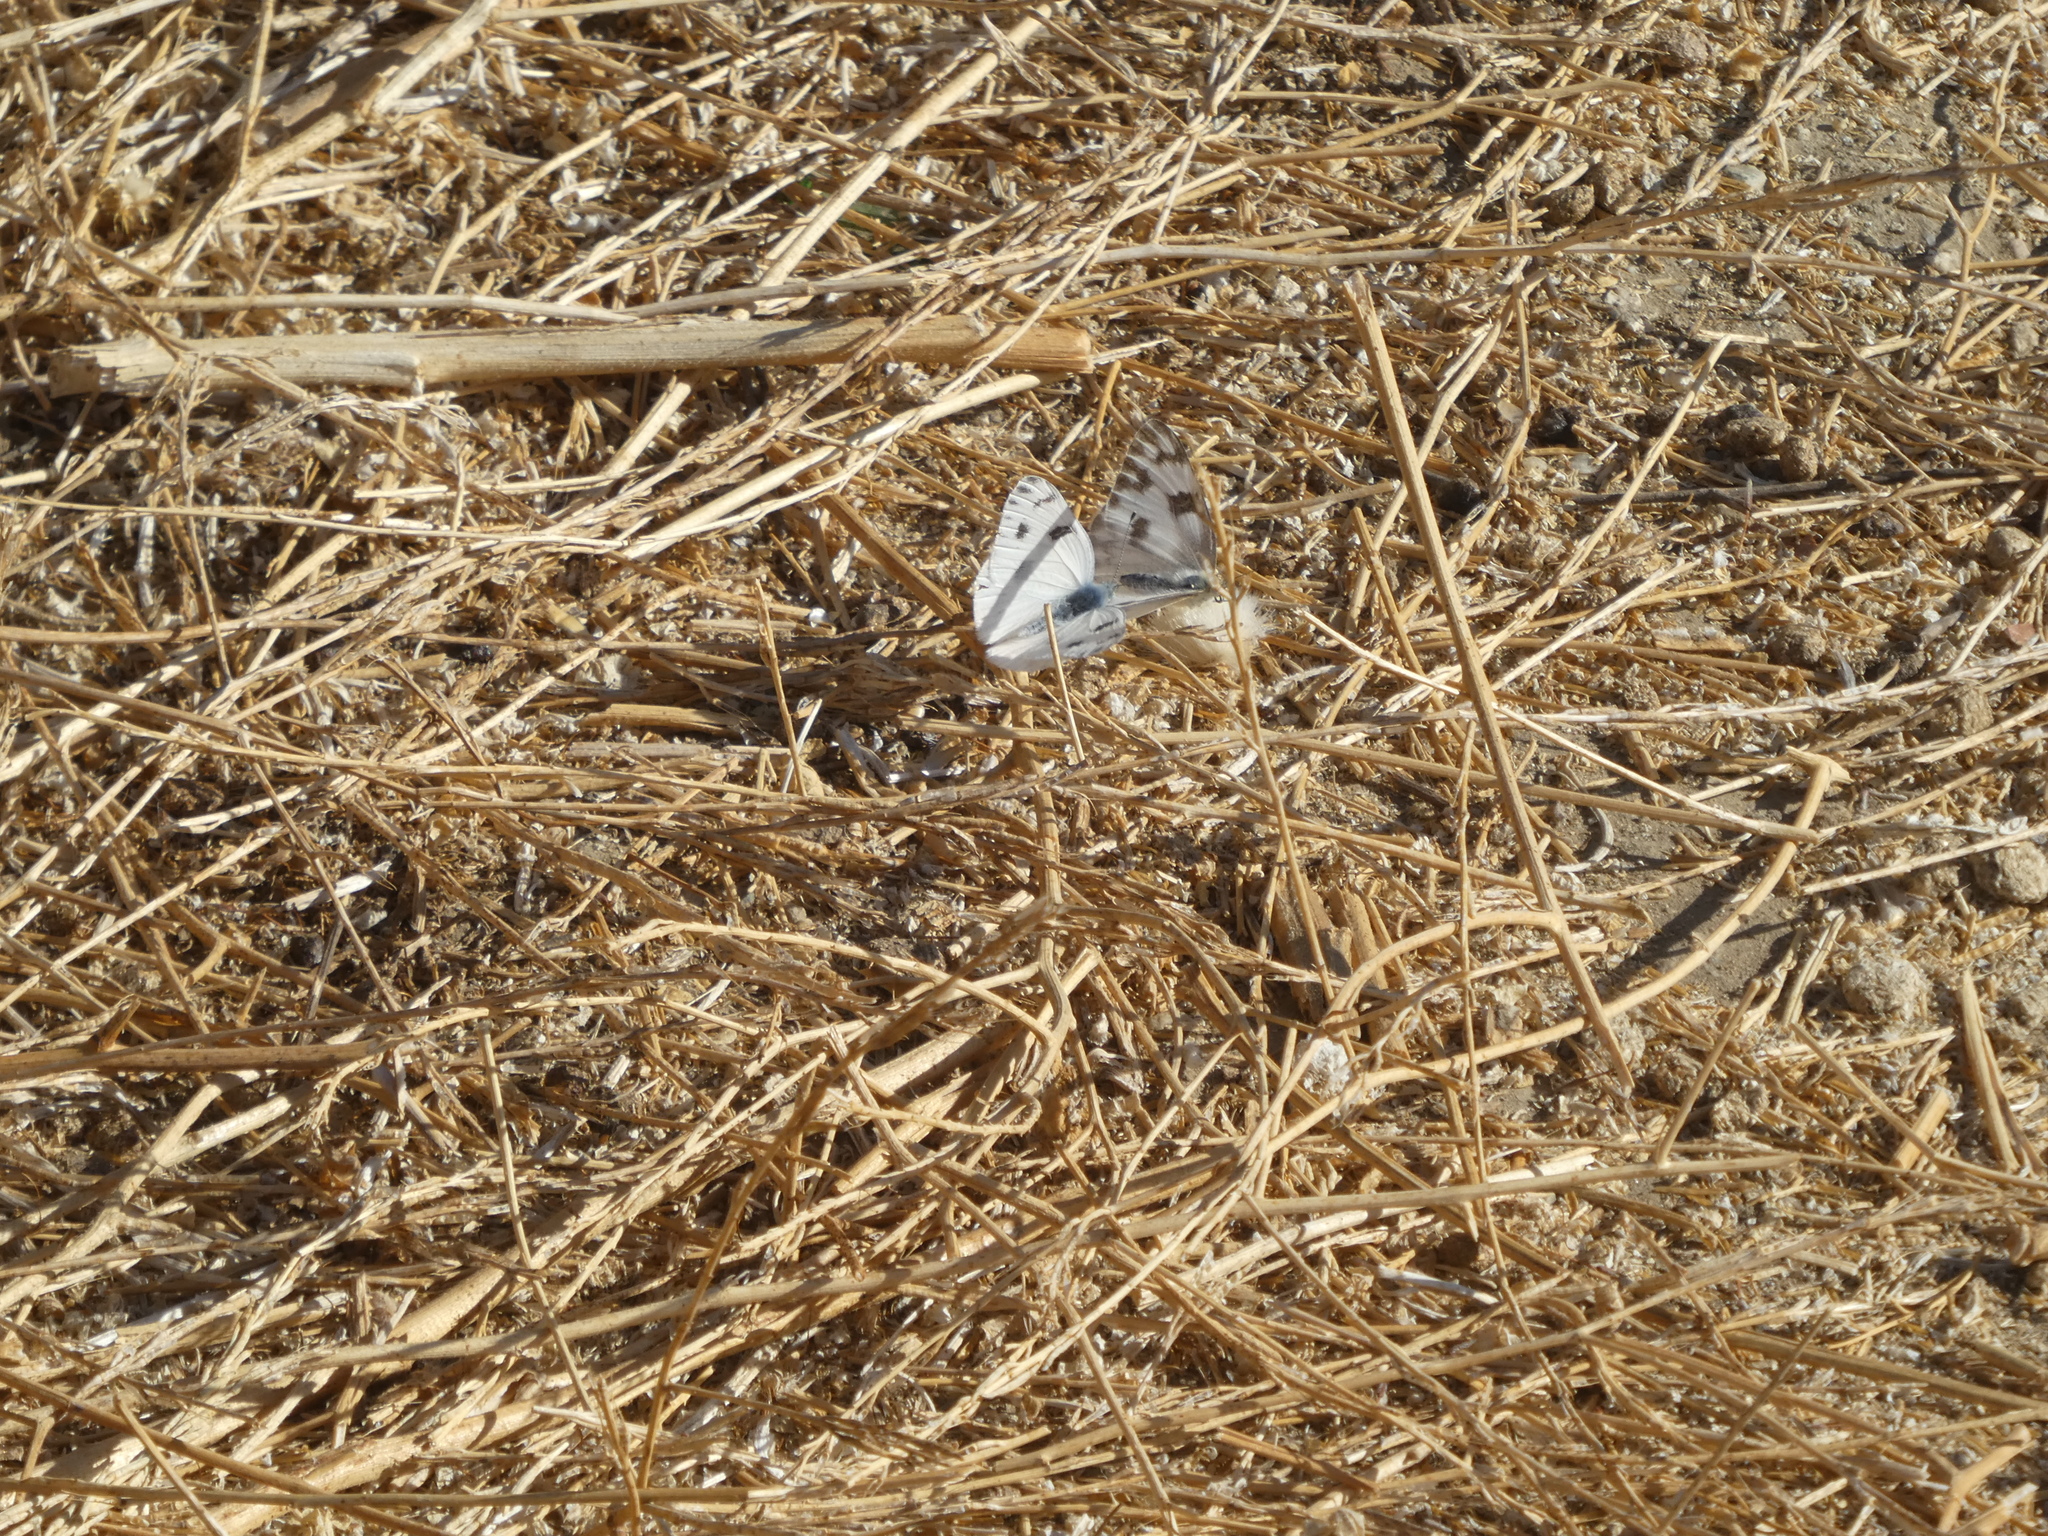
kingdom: Animalia
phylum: Arthropoda
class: Insecta
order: Lepidoptera
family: Pieridae
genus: Pontia
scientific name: Pontia protodice
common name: Checkered white
